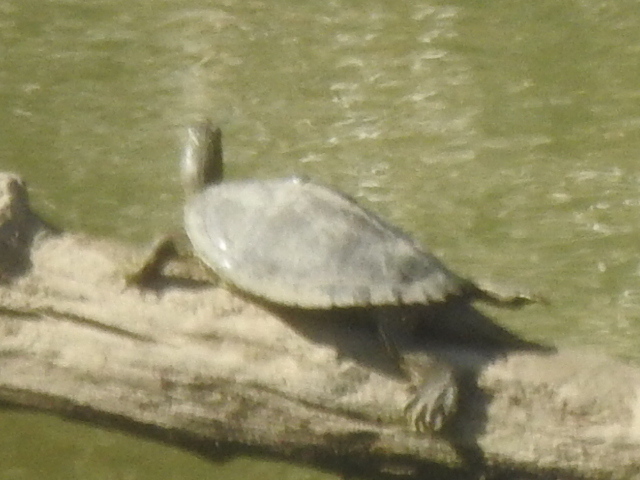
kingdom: Animalia
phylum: Chordata
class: Testudines
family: Emydidae
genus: Graptemys
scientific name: Graptemys pseudogeographica
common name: False map turtle
